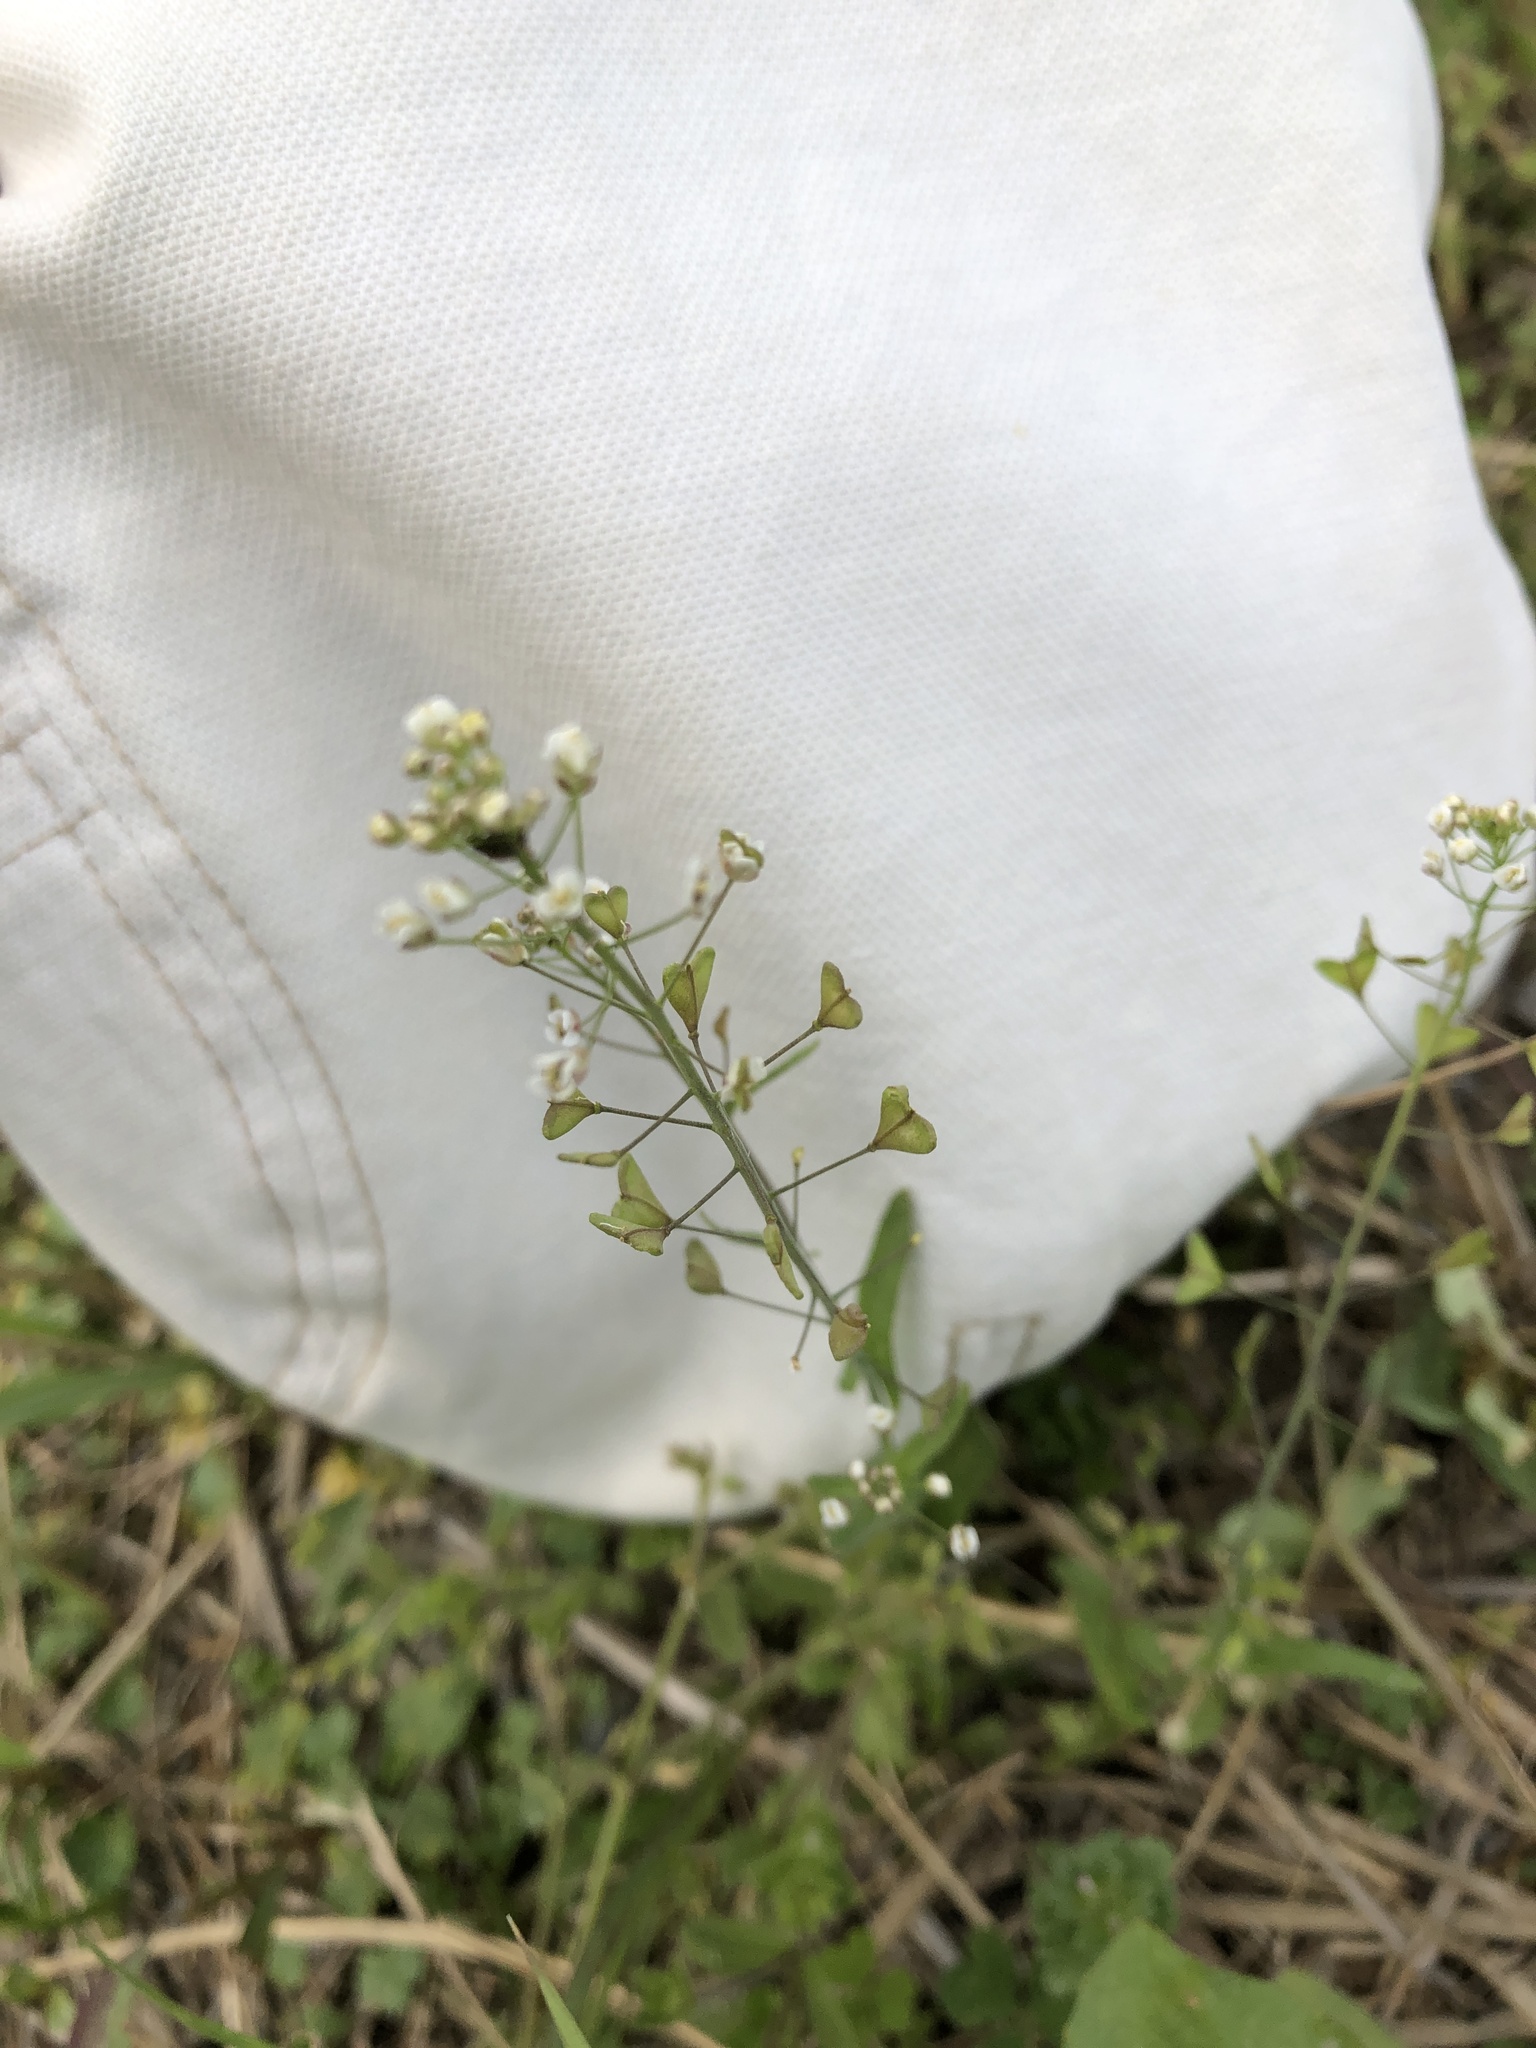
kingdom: Plantae
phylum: Tracheophyta
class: Magnoliopsida
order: Brassicales
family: Brassicaceae
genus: Capsella
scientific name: Capsella bursa-pastoris
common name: Shepherd's purse
